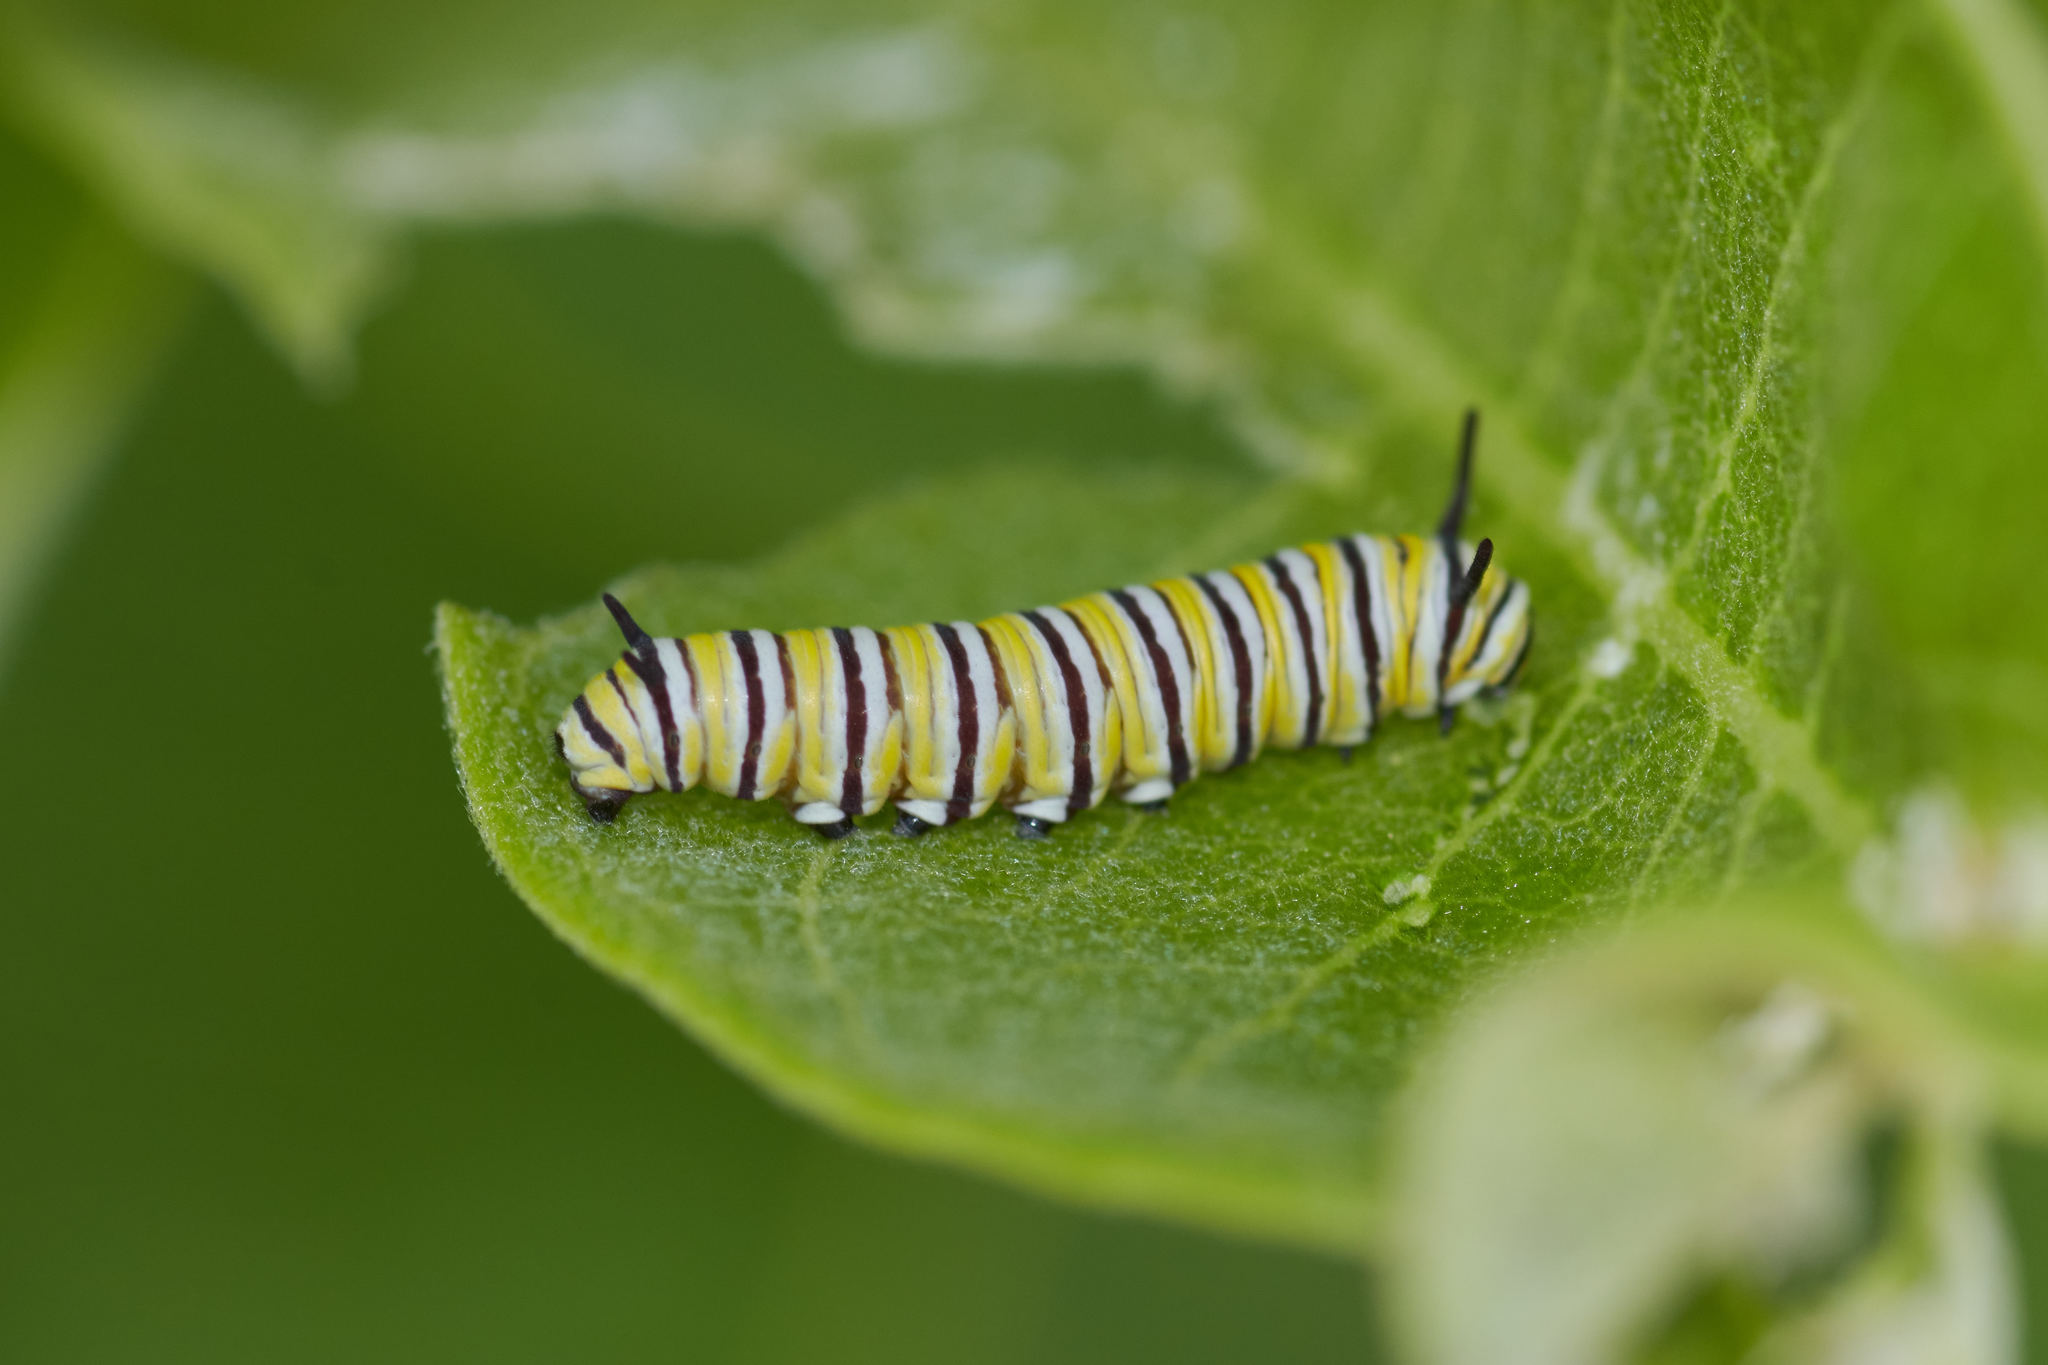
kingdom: Animalia
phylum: Arthropoda
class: Insecta
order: Lepidoptera
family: Nymphalidae
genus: Danaus
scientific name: Danaus plexippus
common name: Monarch
